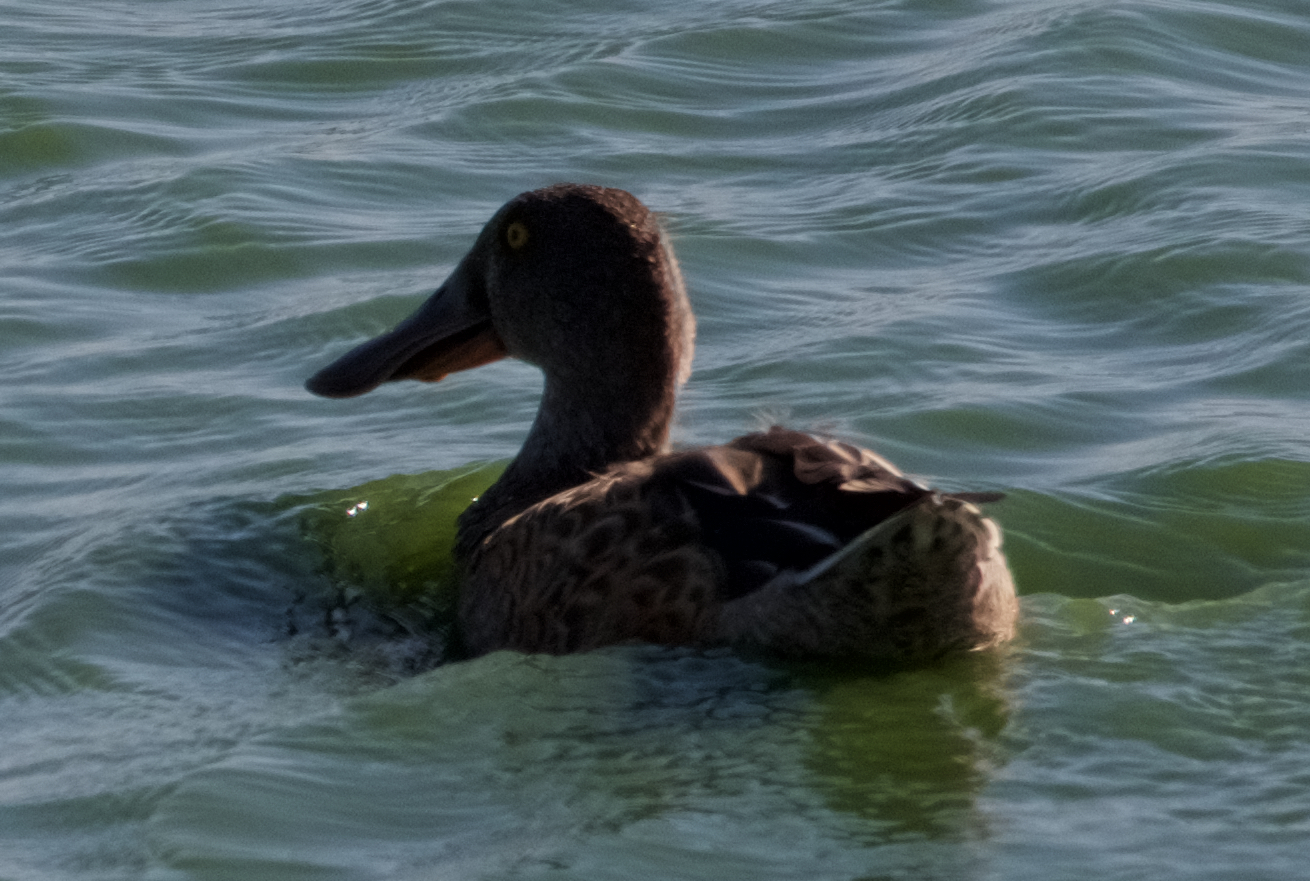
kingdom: Animalia
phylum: Chordata
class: Aves
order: Anseriformes
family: Anatidae
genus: Spatula
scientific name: Spatula clypeata
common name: Northern shoveler
